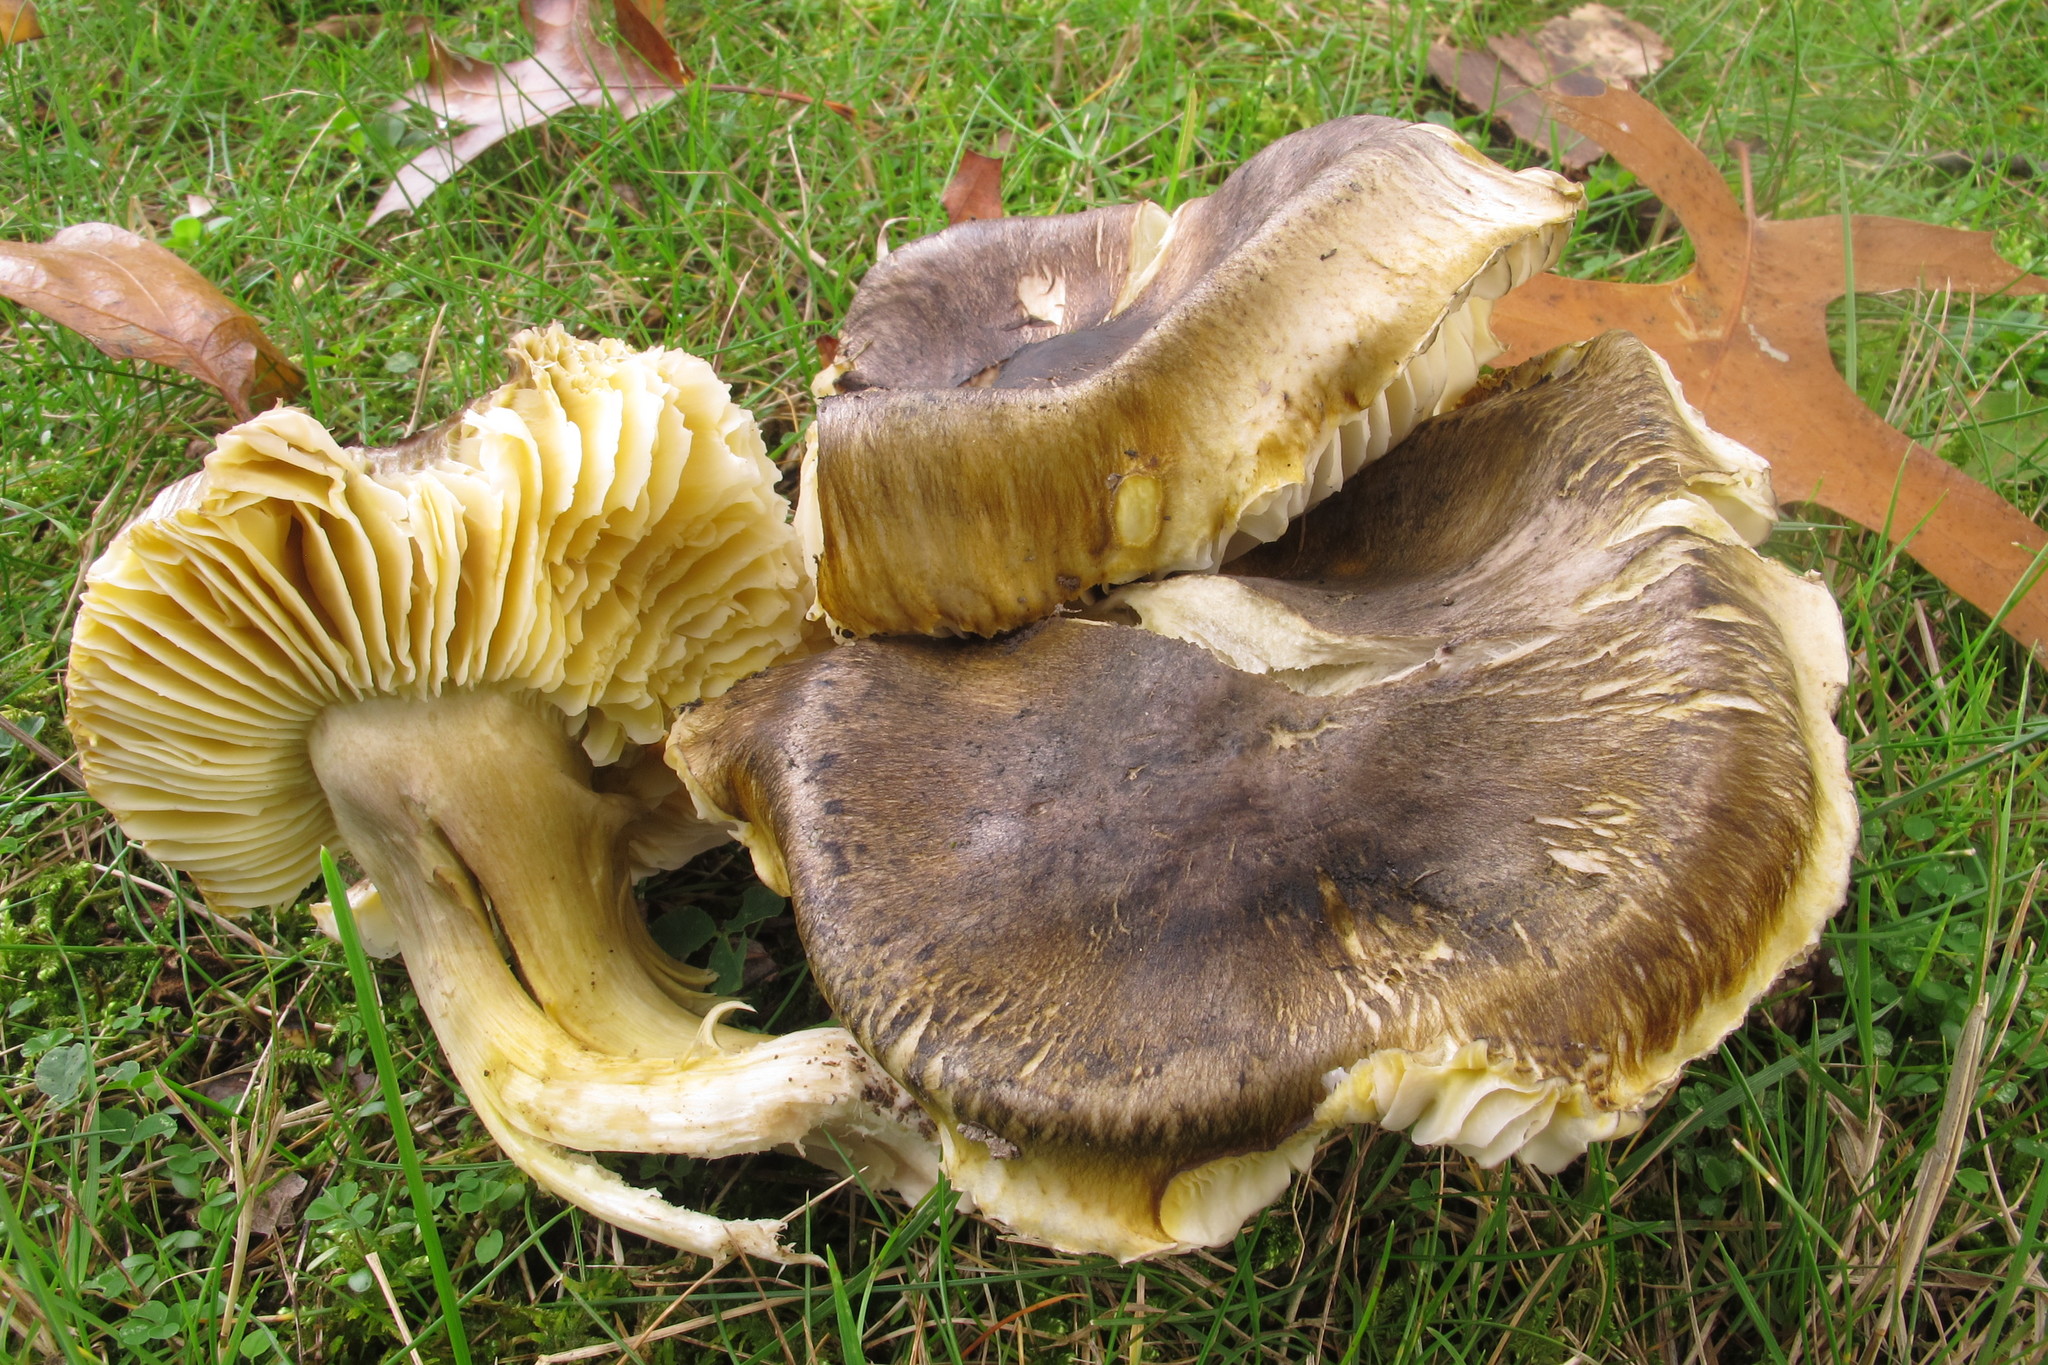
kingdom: Fungi
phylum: Basidiomycota
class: Agaricomycetes
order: Agaricales
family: Tricholomataceae
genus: Tricholoma
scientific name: Tricholoma sejunctum
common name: Deceiving knight
